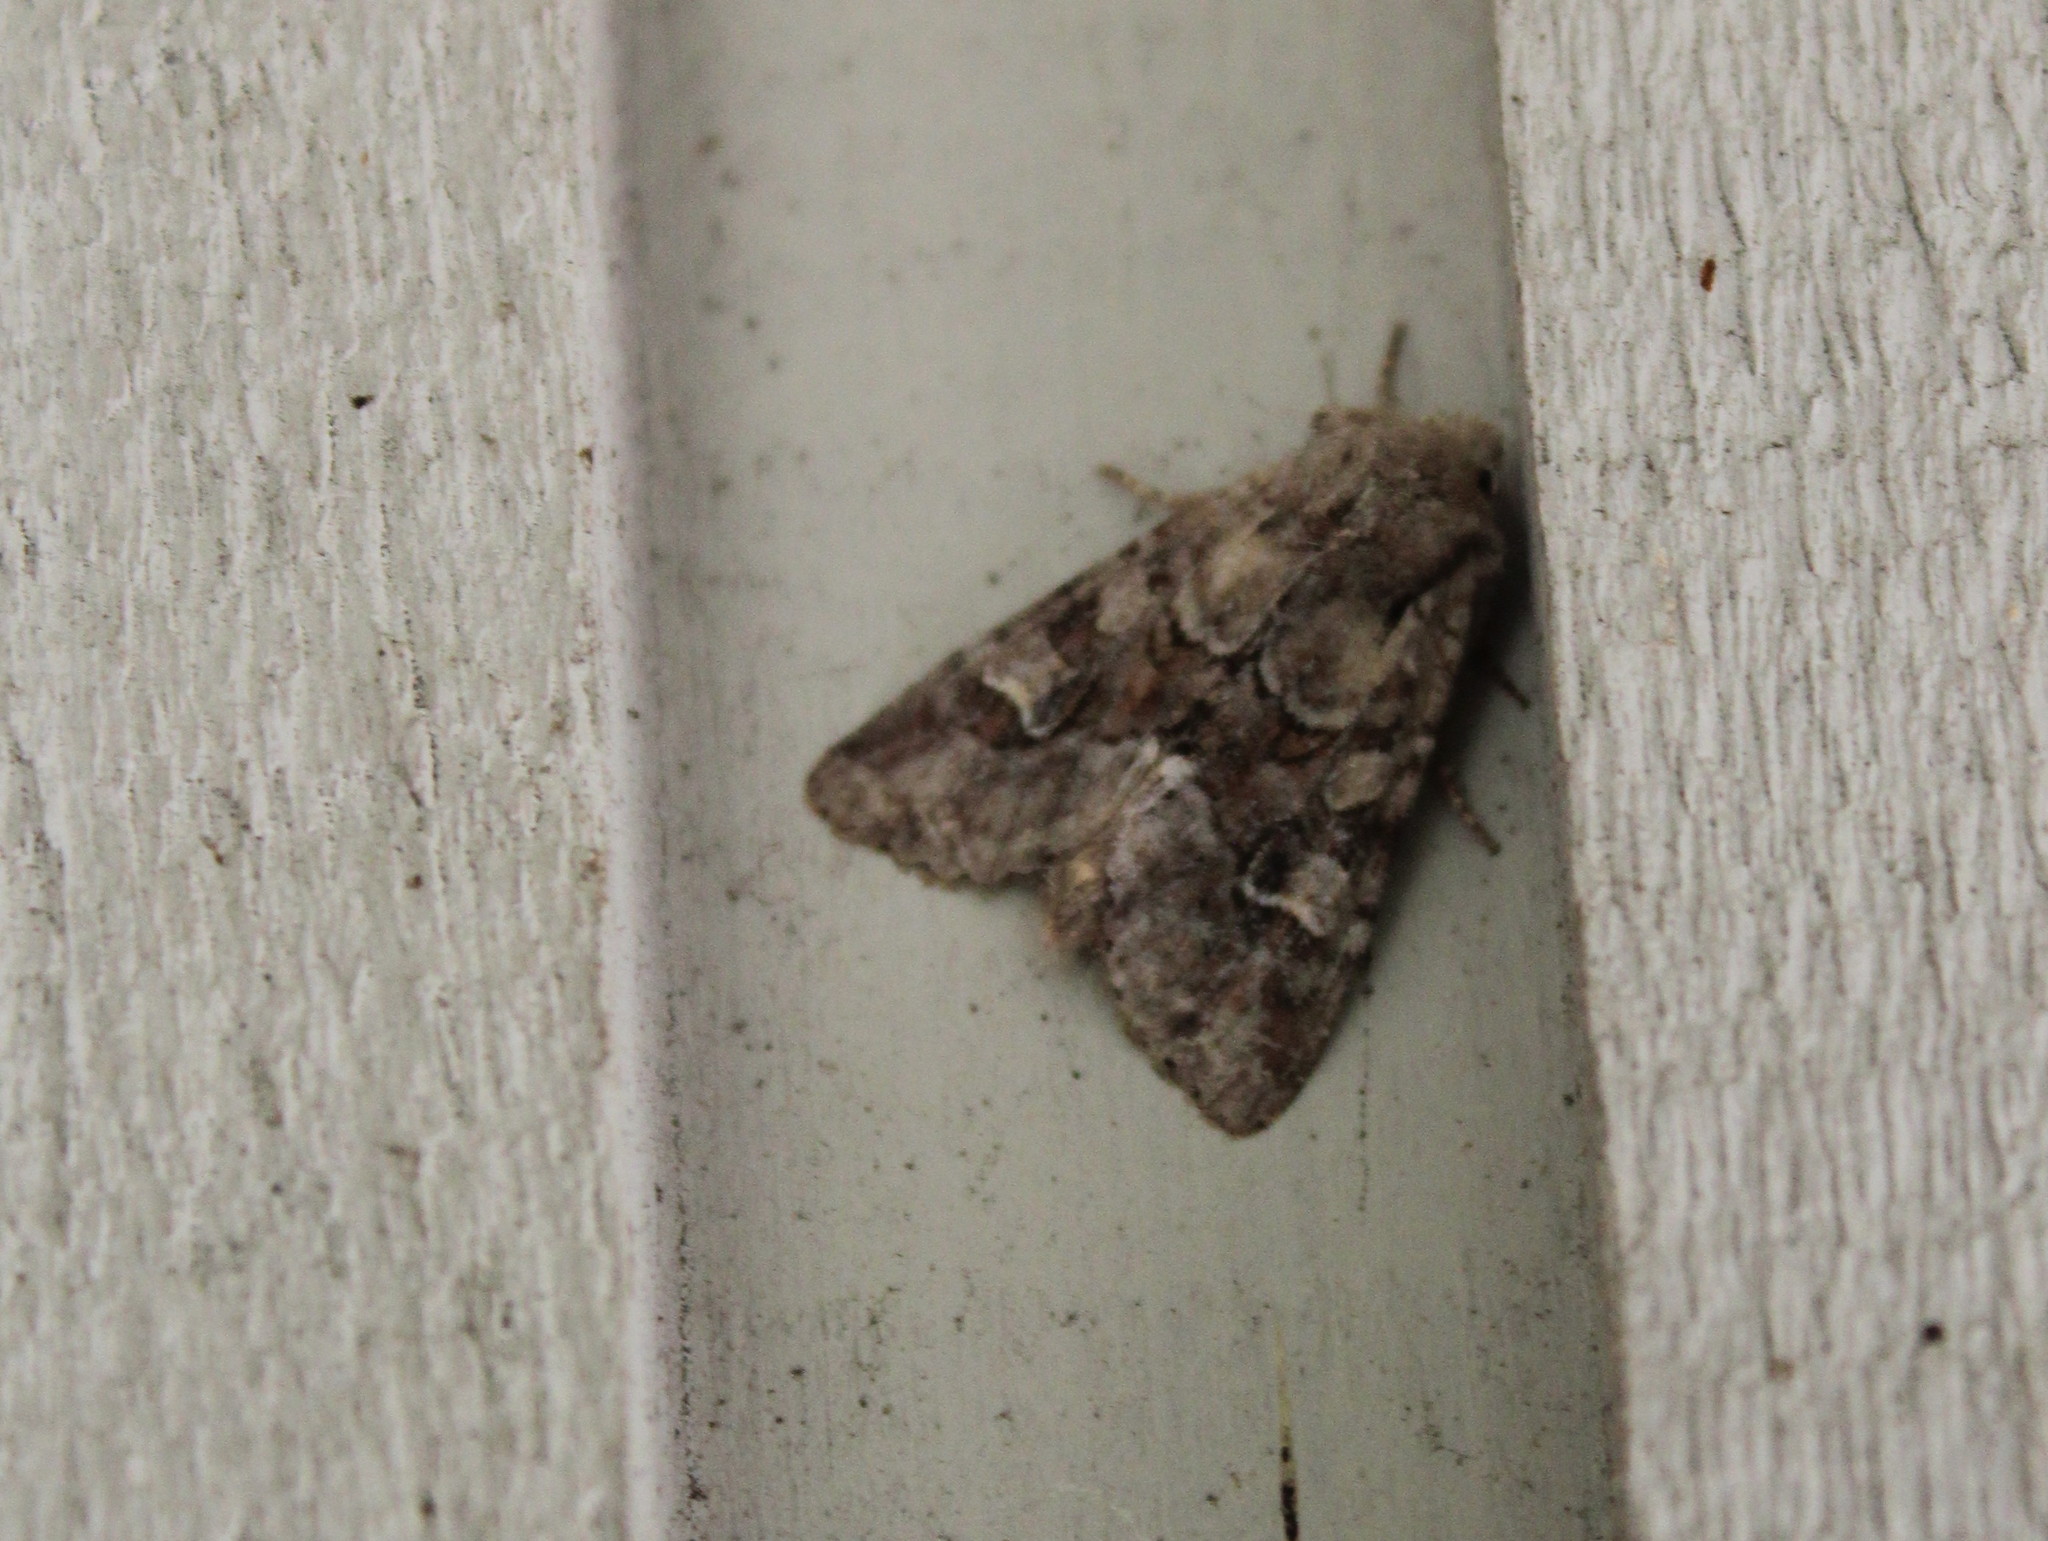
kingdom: Animalia
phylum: Arthropoda
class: Insecta
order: Lepidoptera
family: Noctuidae
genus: Apamea
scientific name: Apamea sordens
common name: Rustic shoulder-knot
